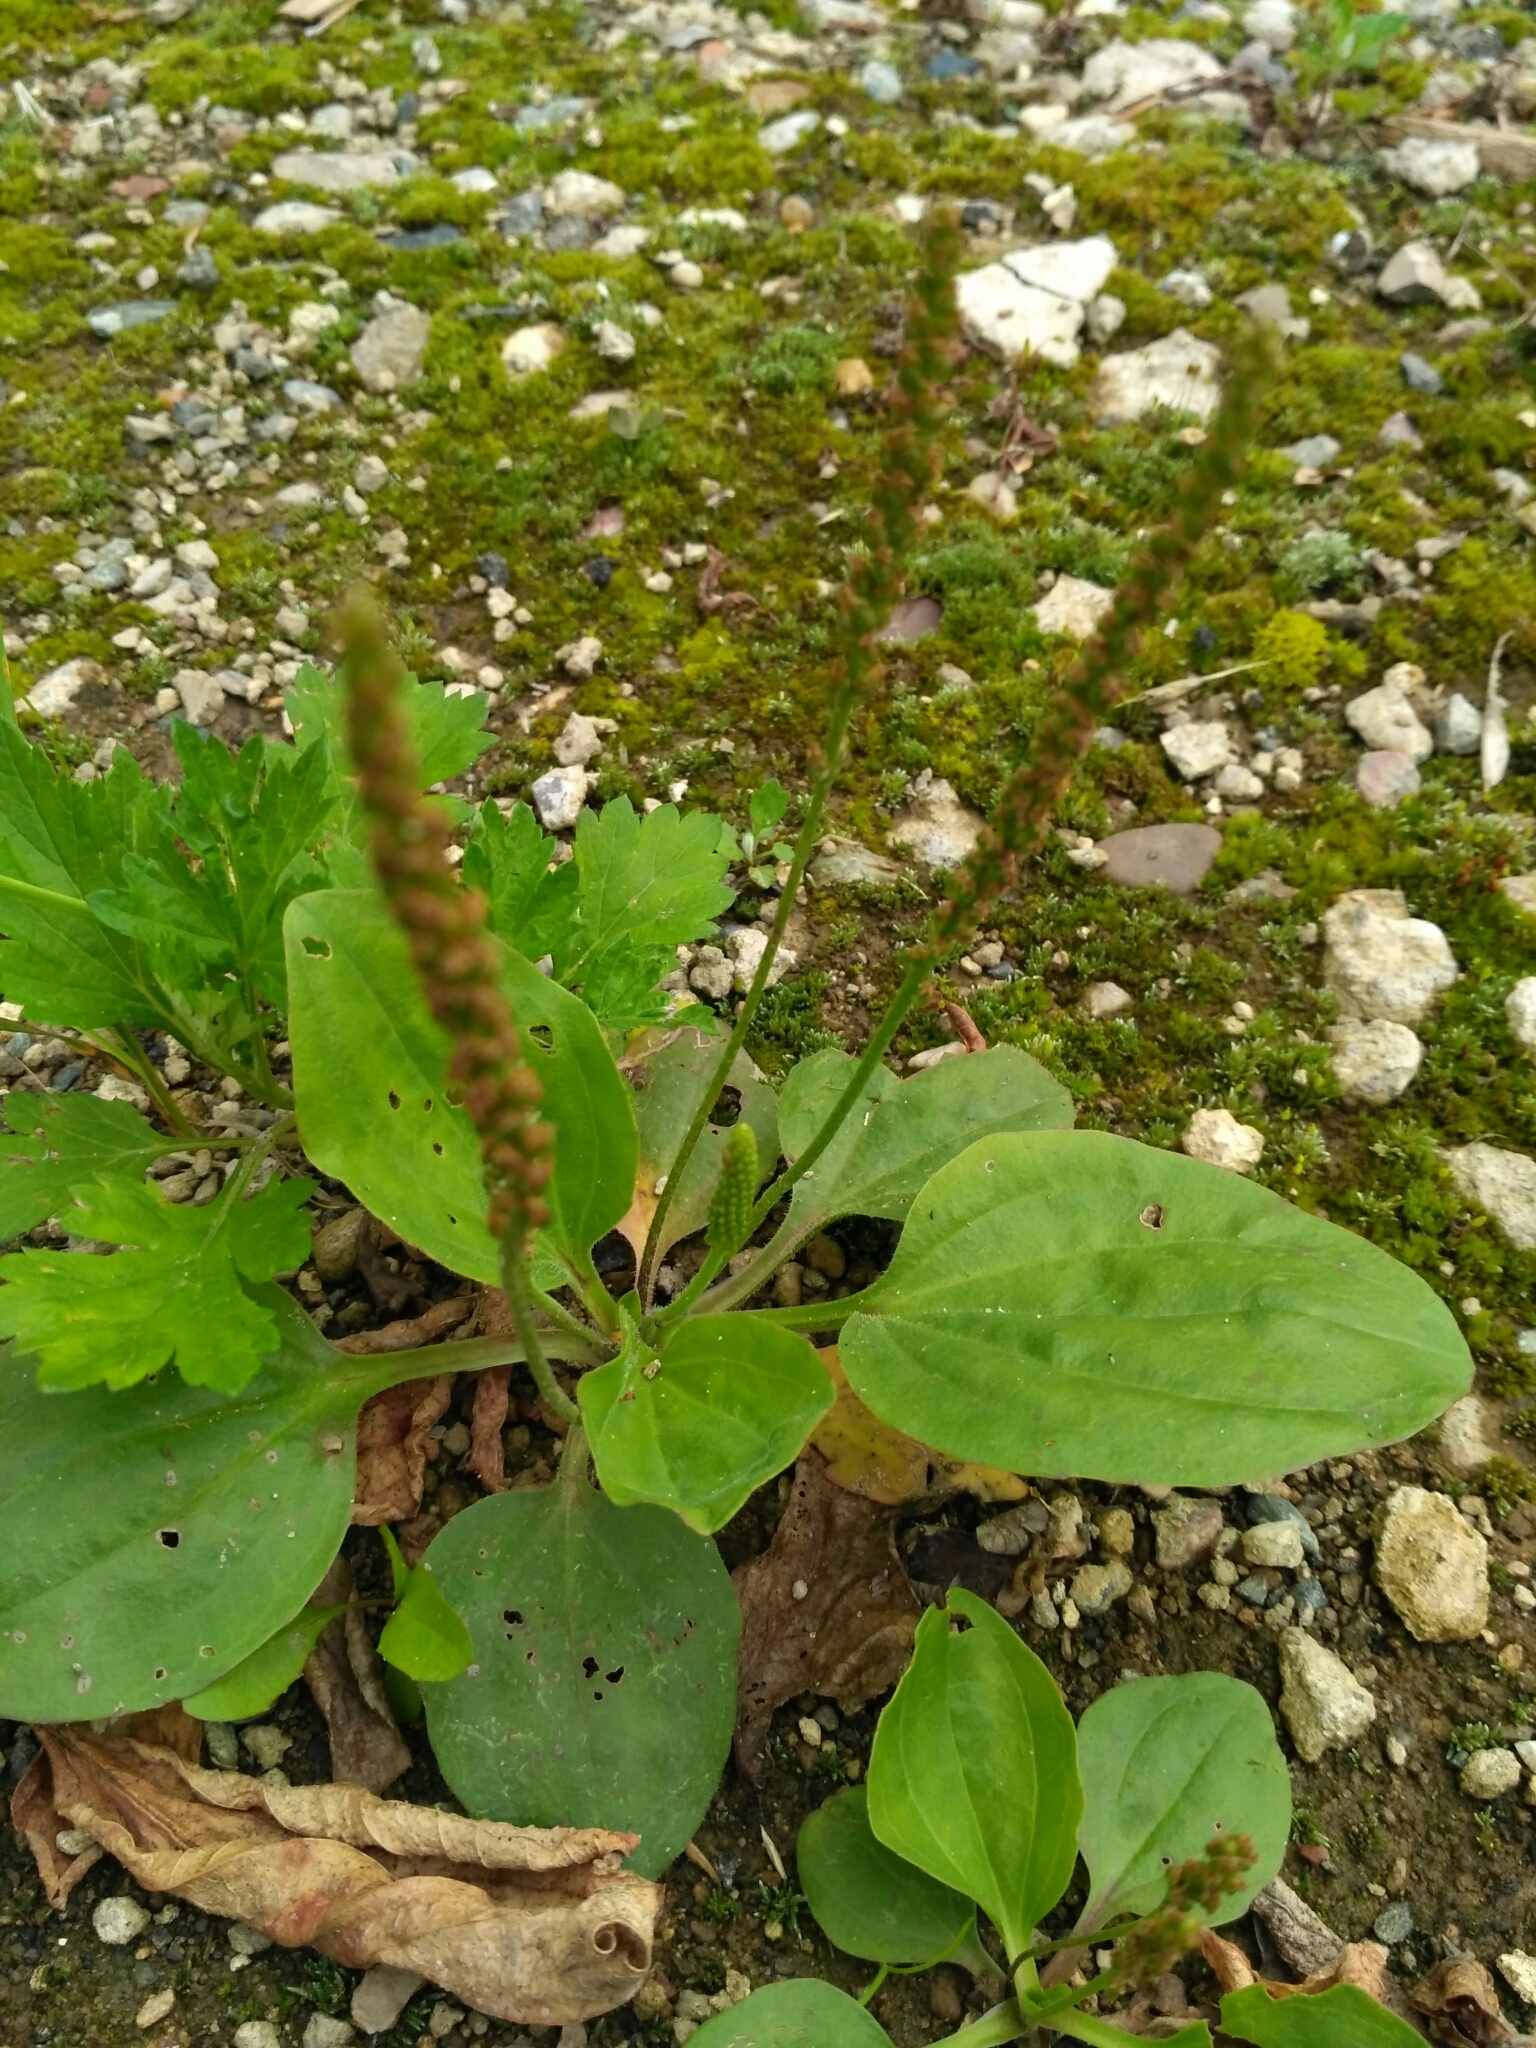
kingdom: Plantae
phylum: Tracheophyta
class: Magnoliopsida
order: Lamiales
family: Plantaginaceae
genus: Plantago
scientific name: Plantago major
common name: Common plantain
